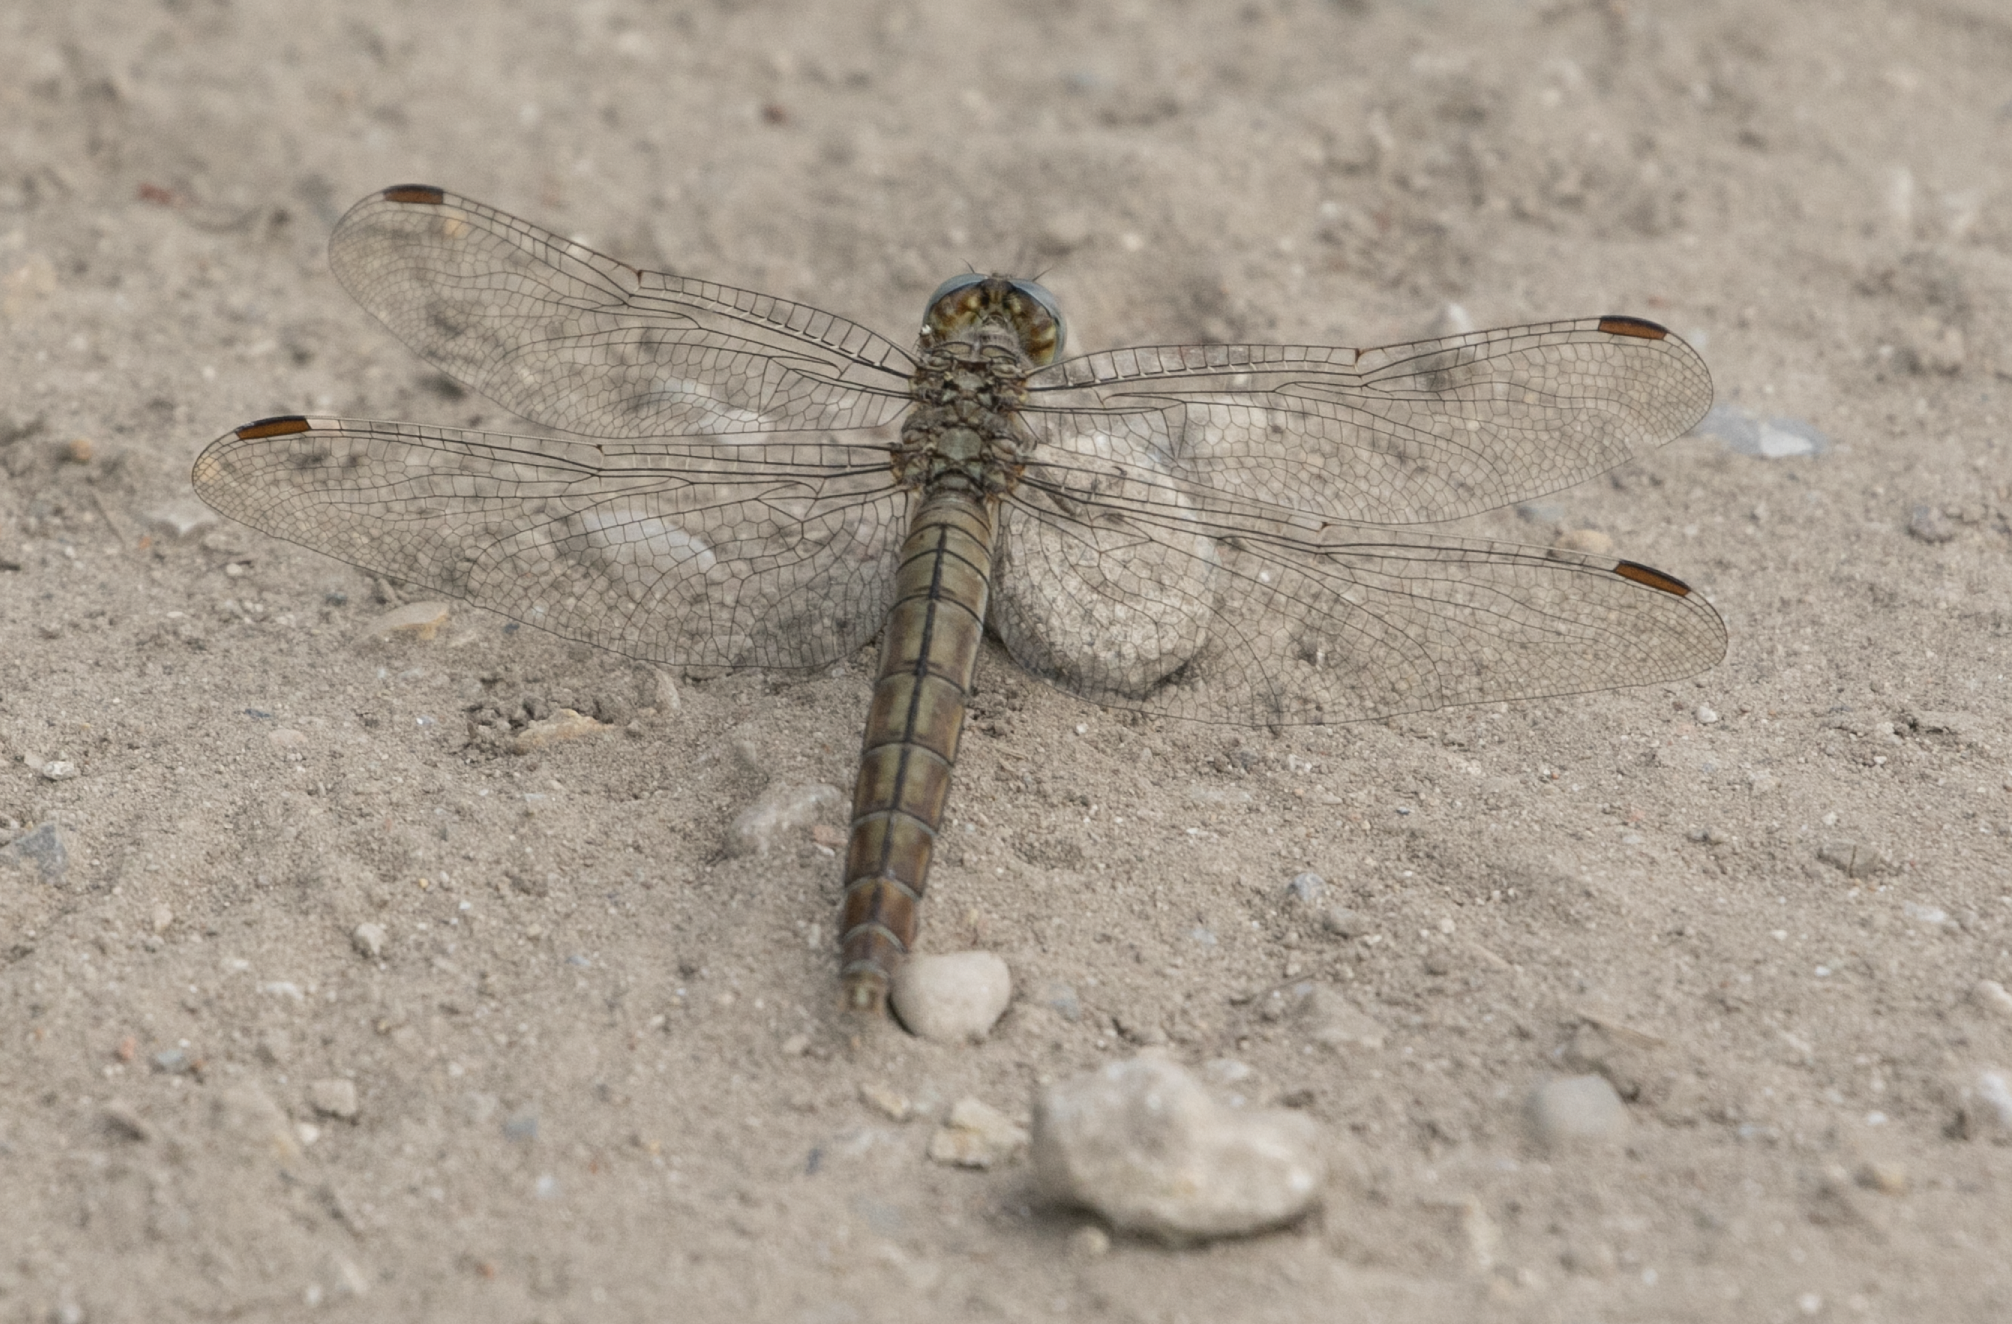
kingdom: Animalia
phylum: Arthropoda
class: Insecta
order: Odonata
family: Libellulidae
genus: Orthetrum
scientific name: Orthetrum brunneum
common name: Southern skimmer
